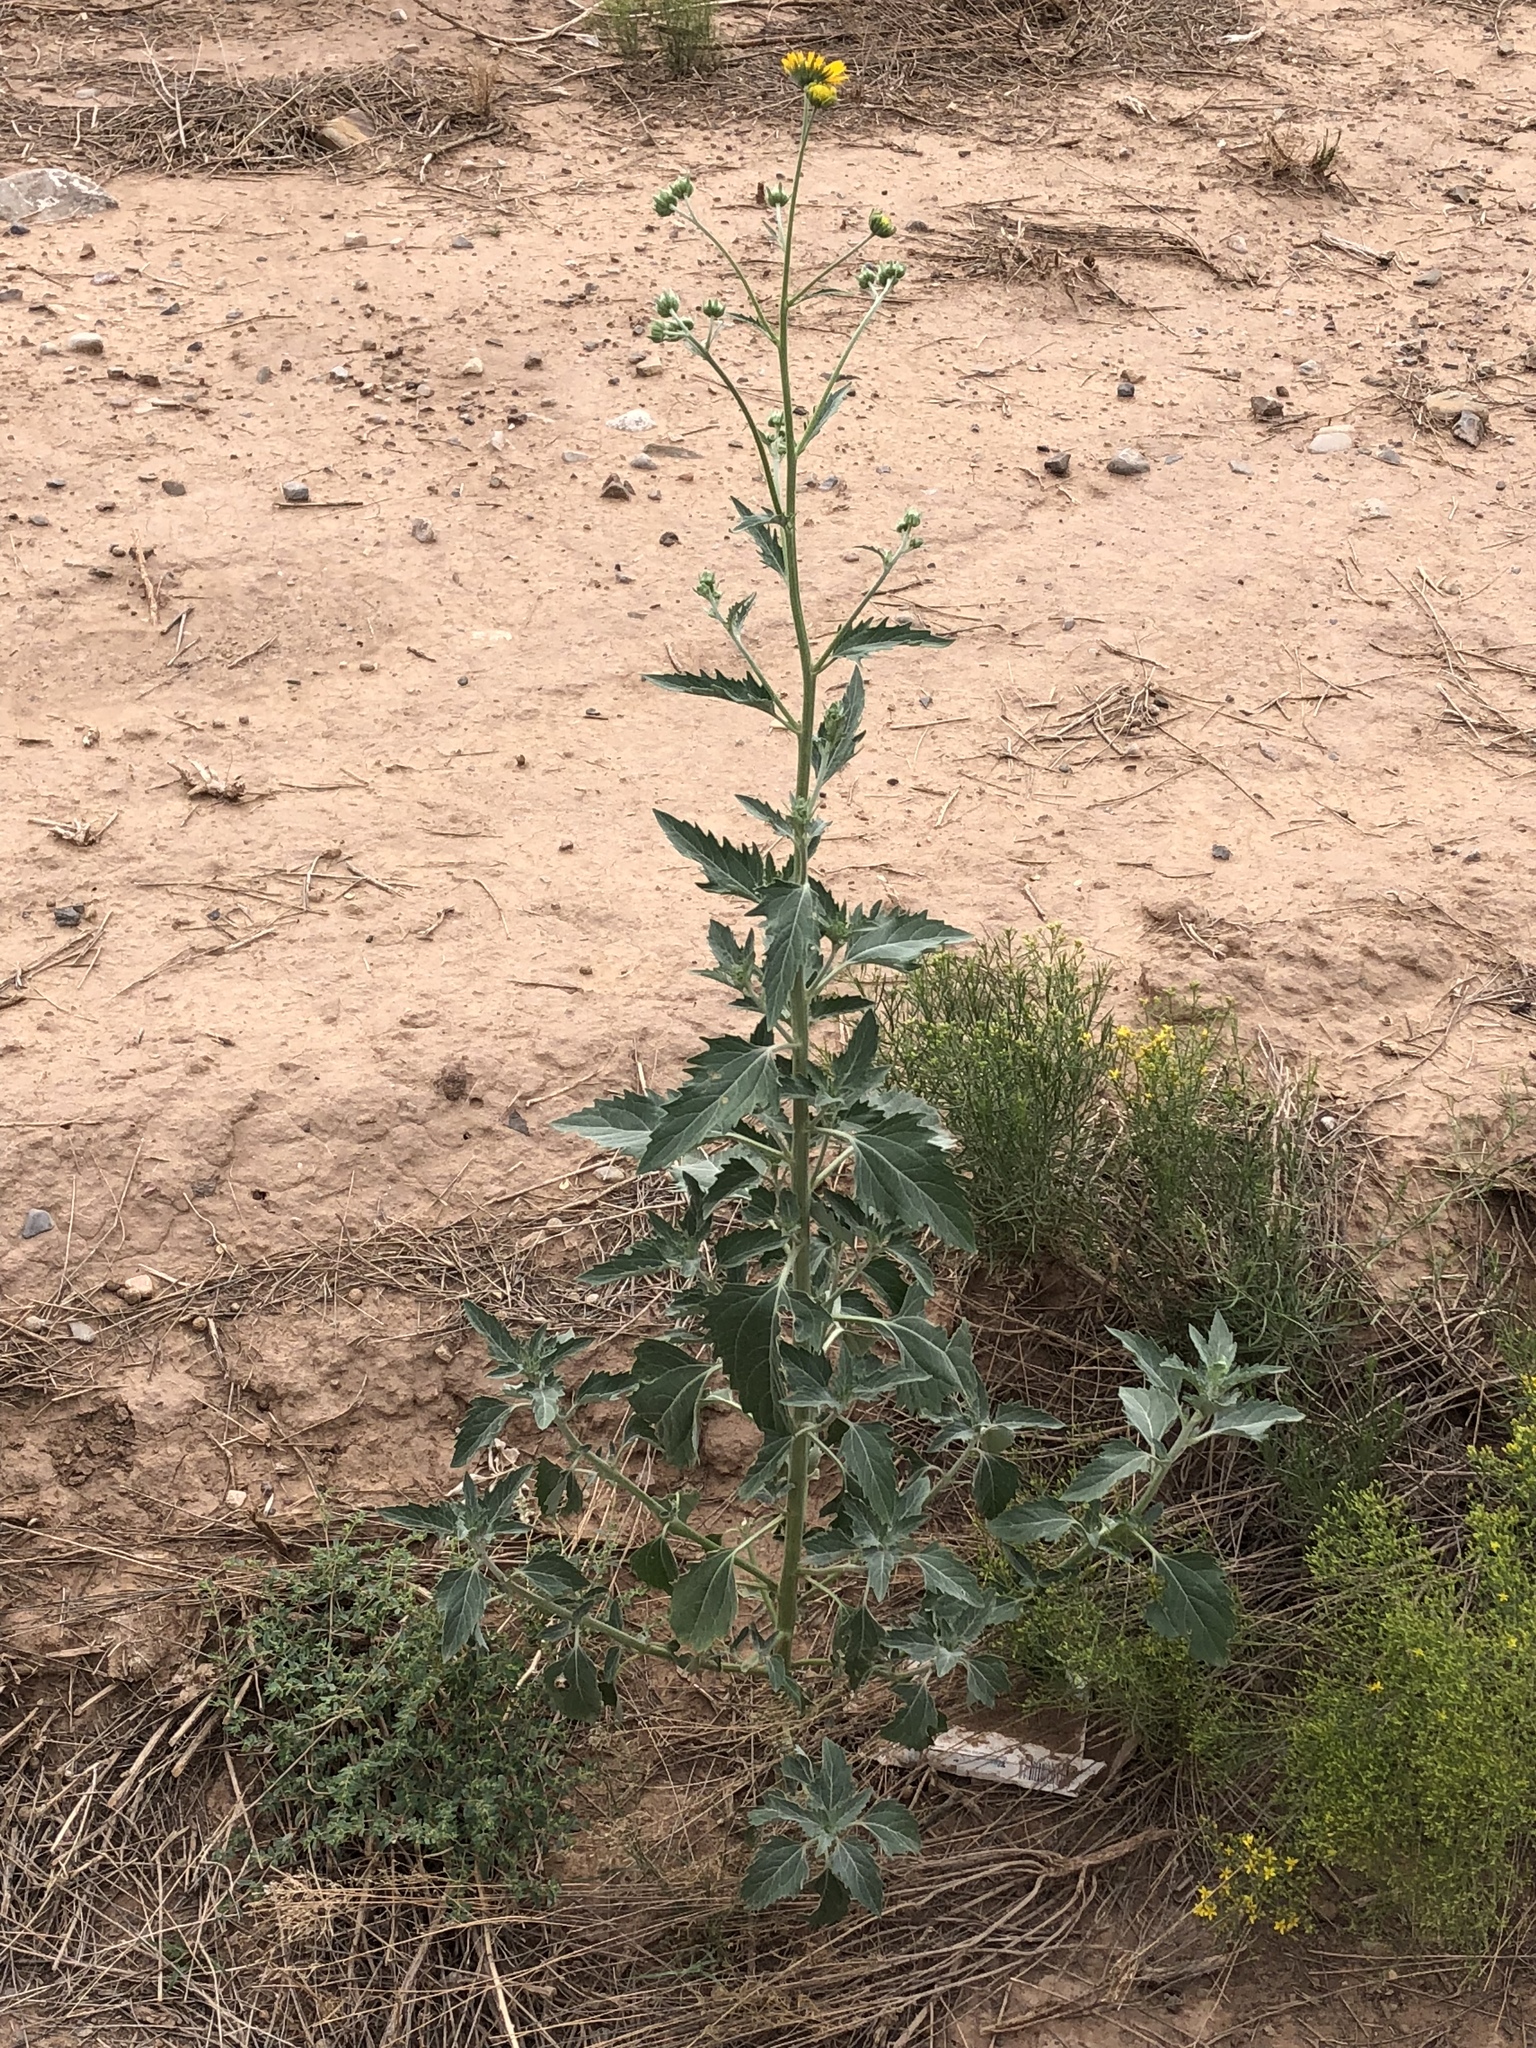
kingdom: Plantae
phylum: Tracheophyta
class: Magnoliopsida
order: Asterales
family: Asteraceae
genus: Verbesina
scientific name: Verbesina encelioides
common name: Golden crownbeard
